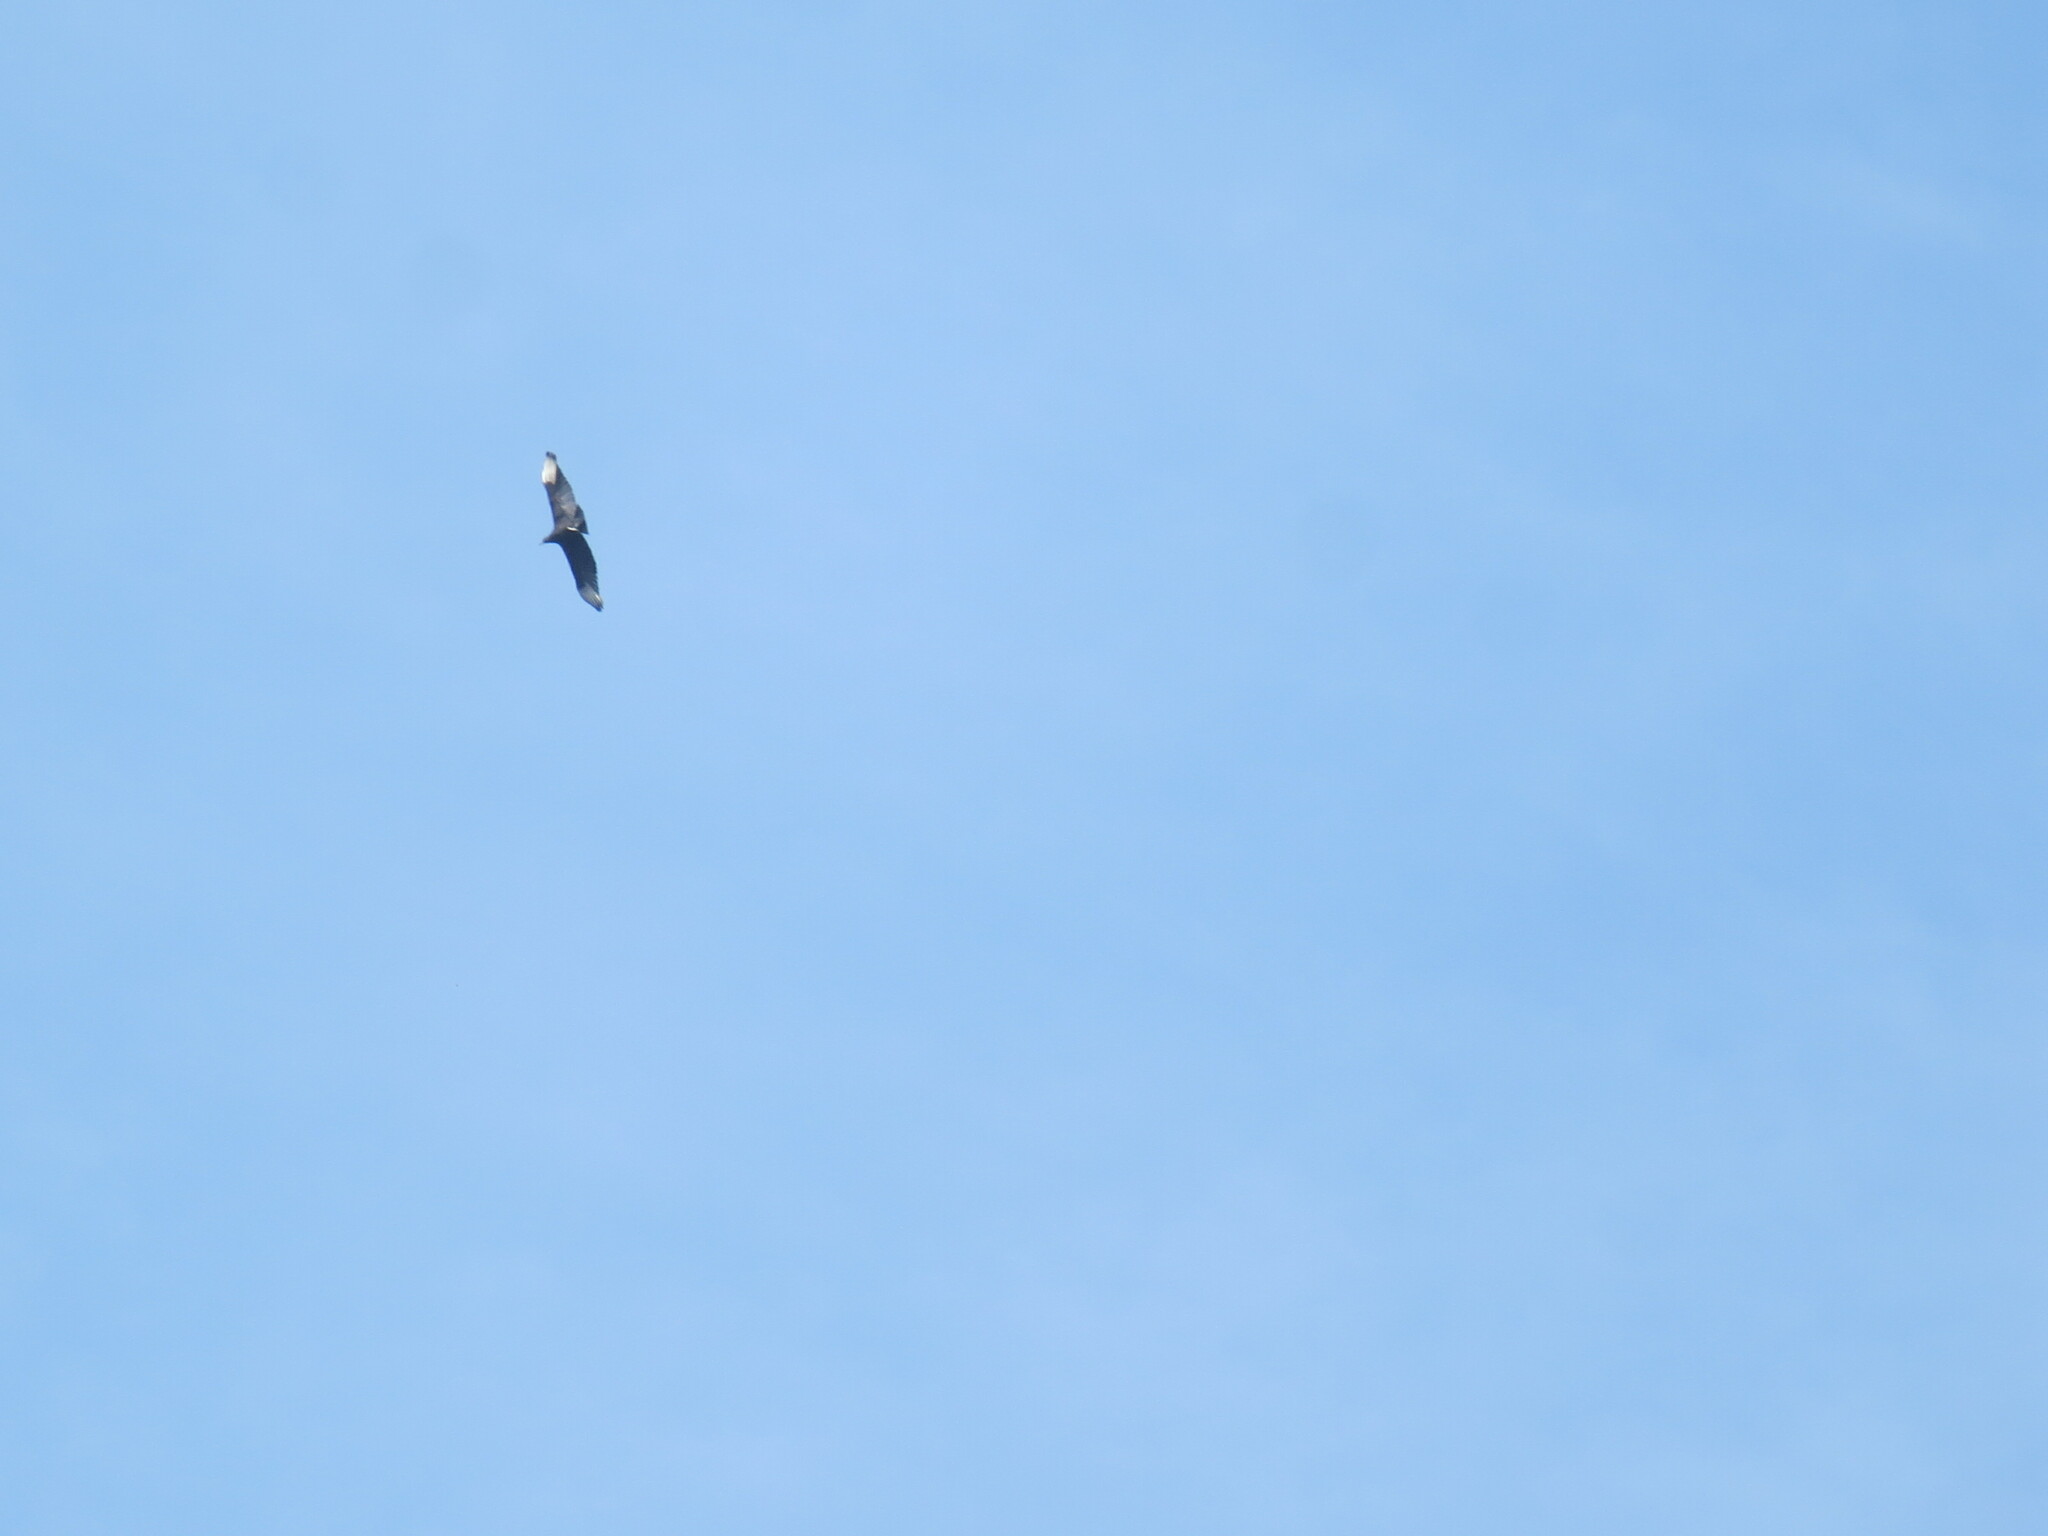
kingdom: Animalia
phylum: Chordata
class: Aves
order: Accipitriformes
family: Cathartidae
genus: Coragyps
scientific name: Coragyps atratus
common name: Black vulture
